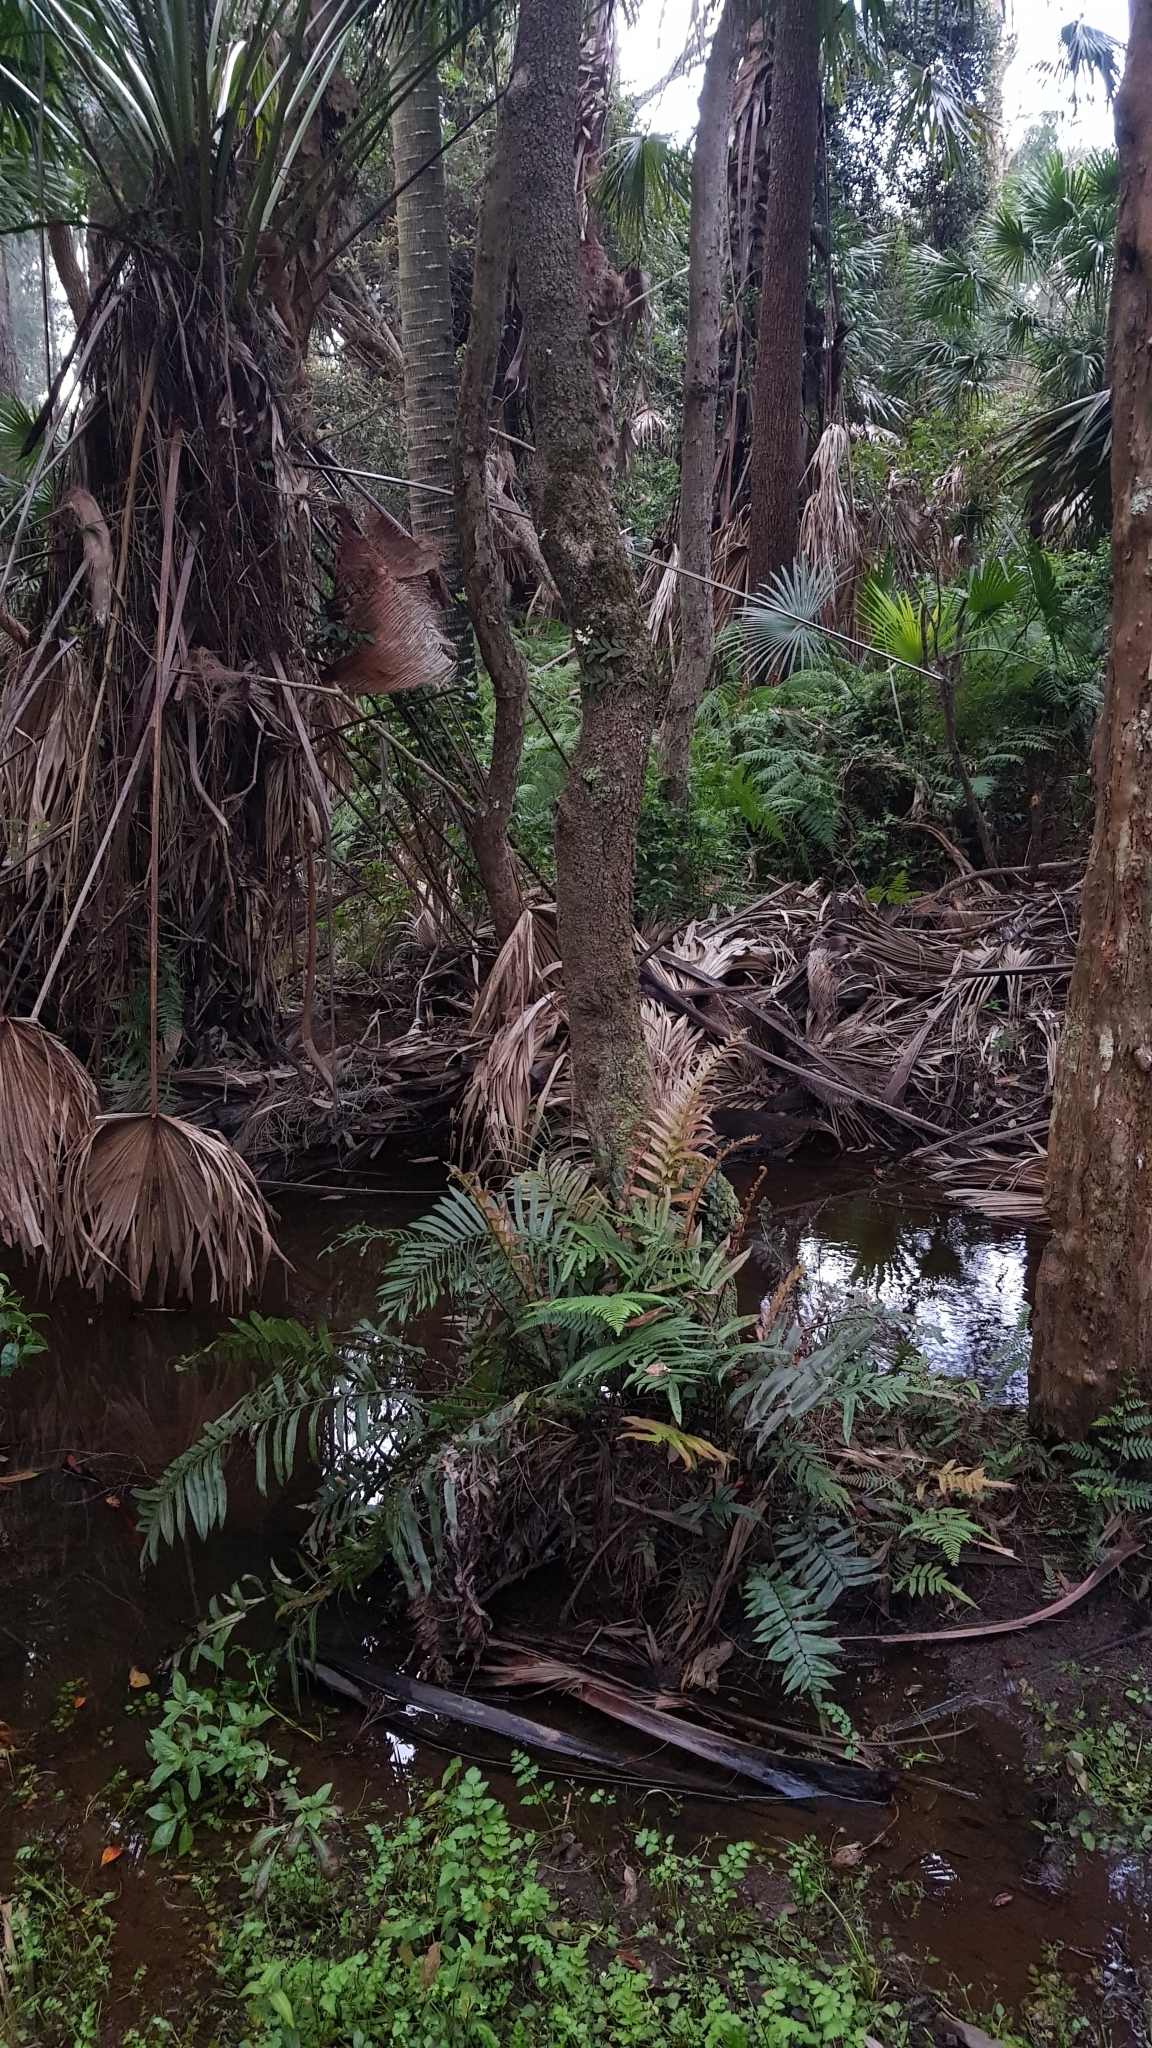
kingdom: Plantae
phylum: Tracheophyta
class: Liliopsida
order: Asparagales
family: Orchidaceae
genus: Dendrobium
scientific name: Dendrobium linguiforme
